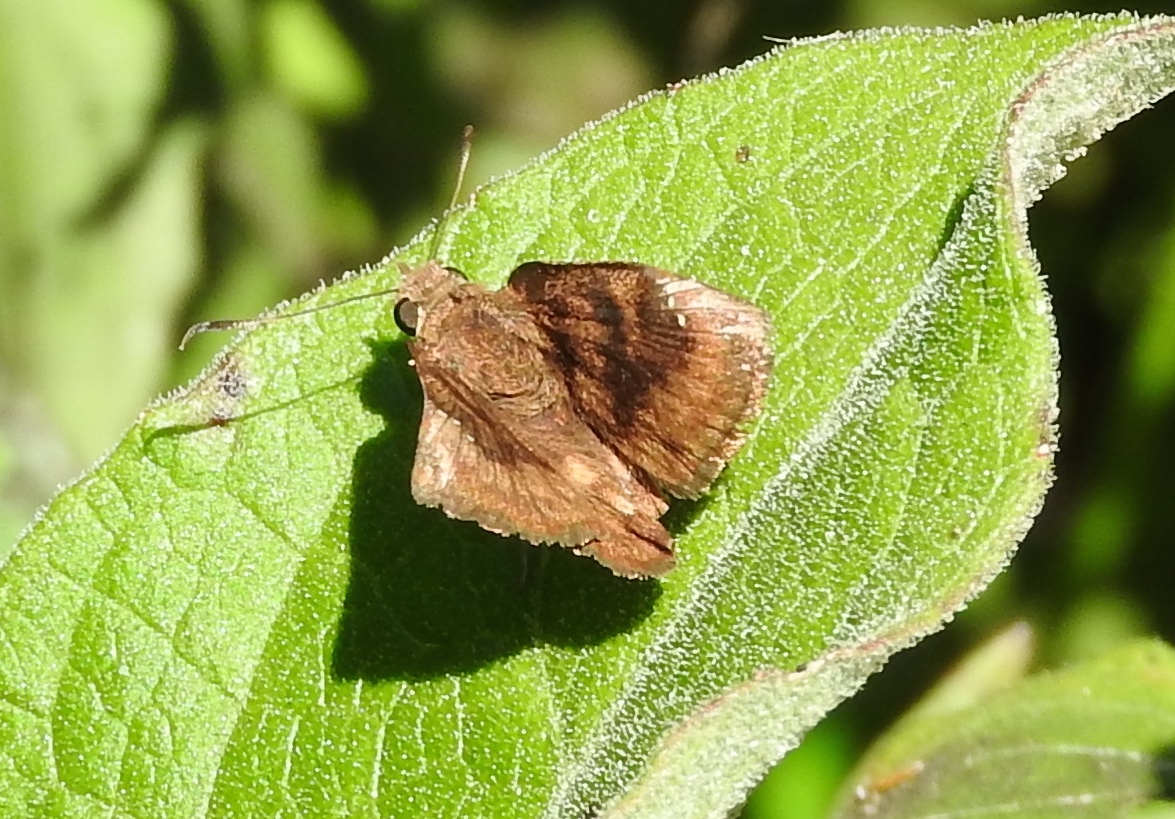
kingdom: Animalia
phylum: Arthropoda
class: Insecta
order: Lepidoptera
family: Hesperiidae
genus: Nisoniades
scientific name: Nisoniades
